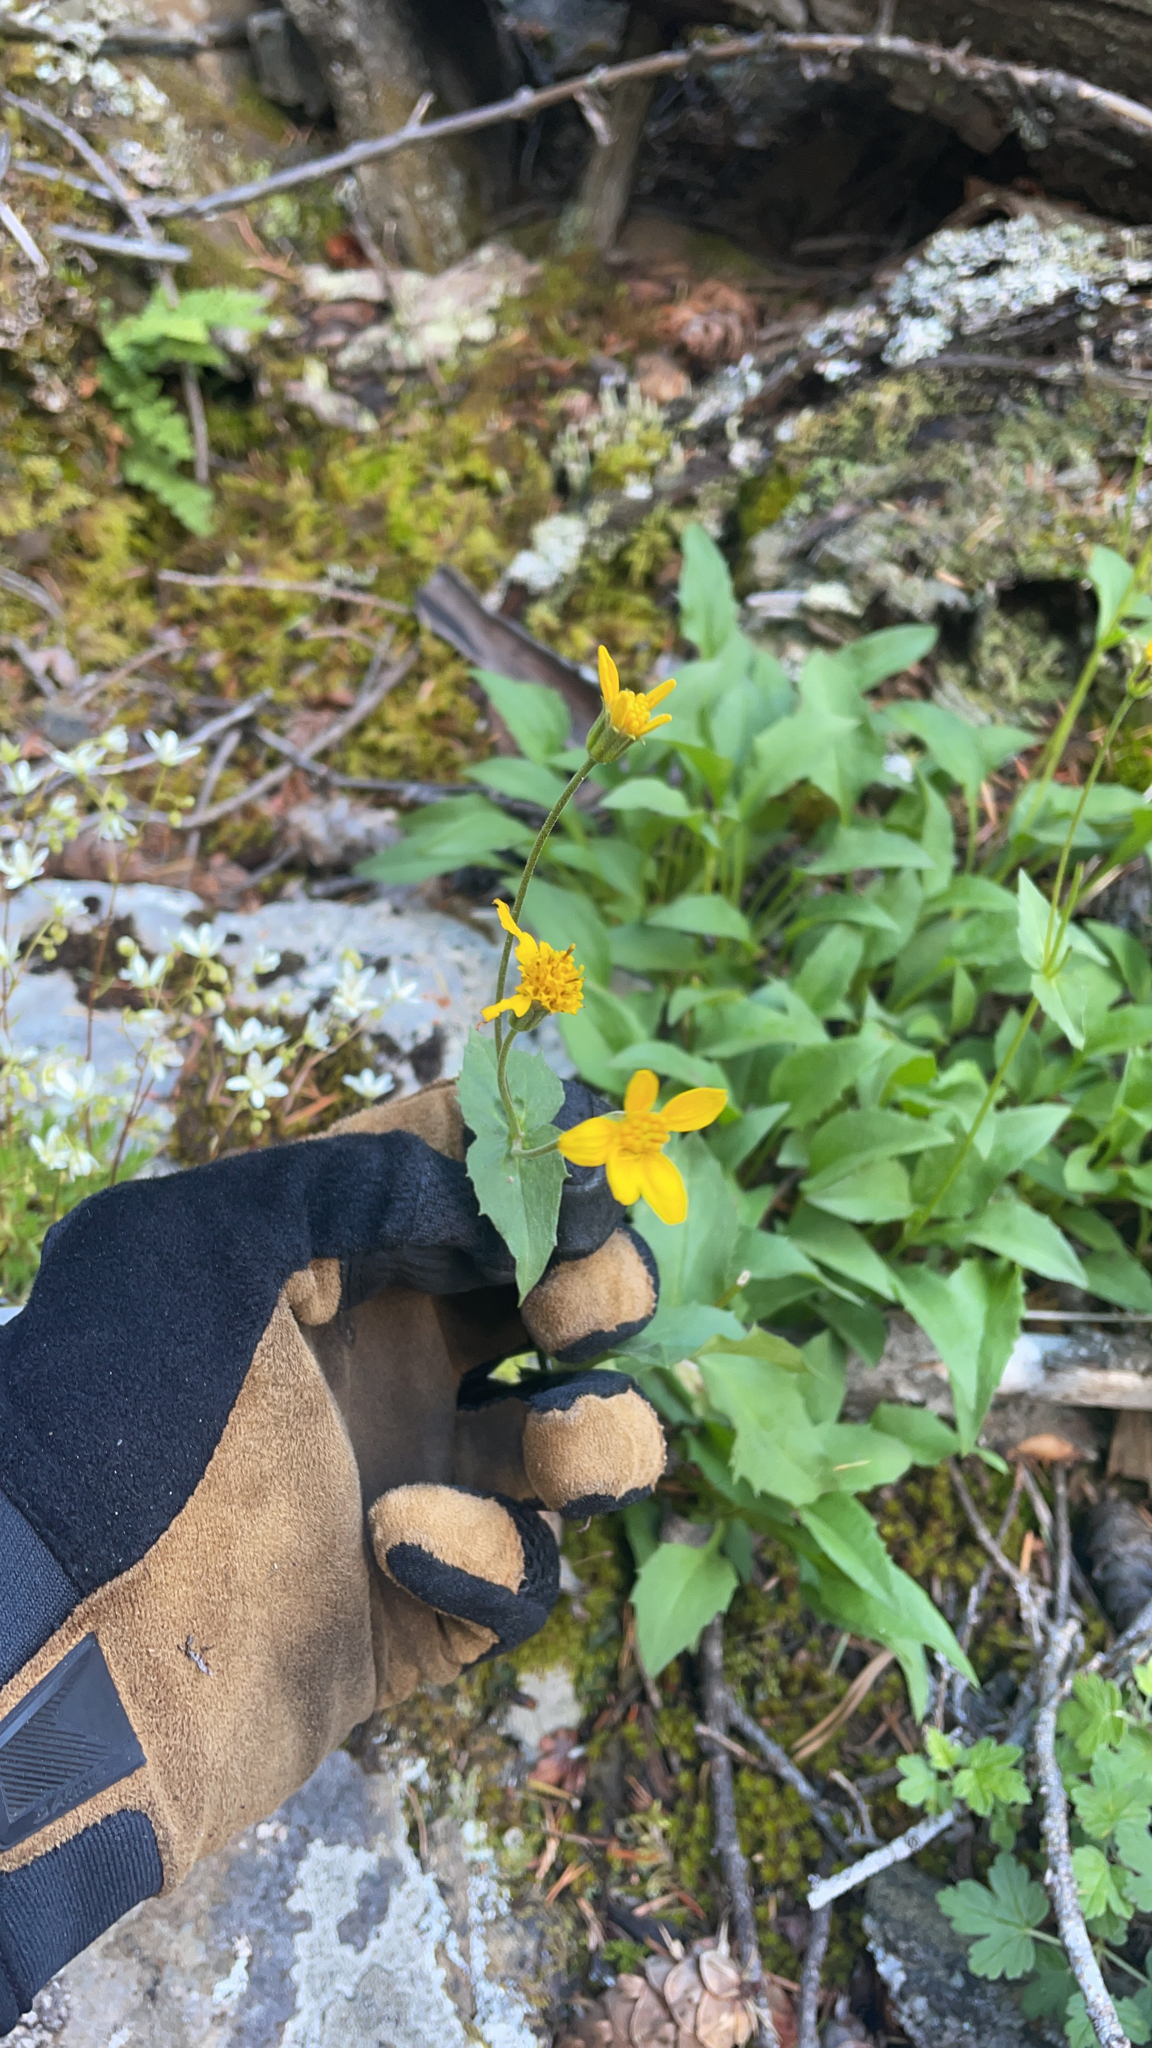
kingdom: Plantae
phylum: Tracheophyta
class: Magnoliopsida
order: Asterales
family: Asteraceae
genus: Arnica
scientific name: Arnica latifolia
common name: Arnica
